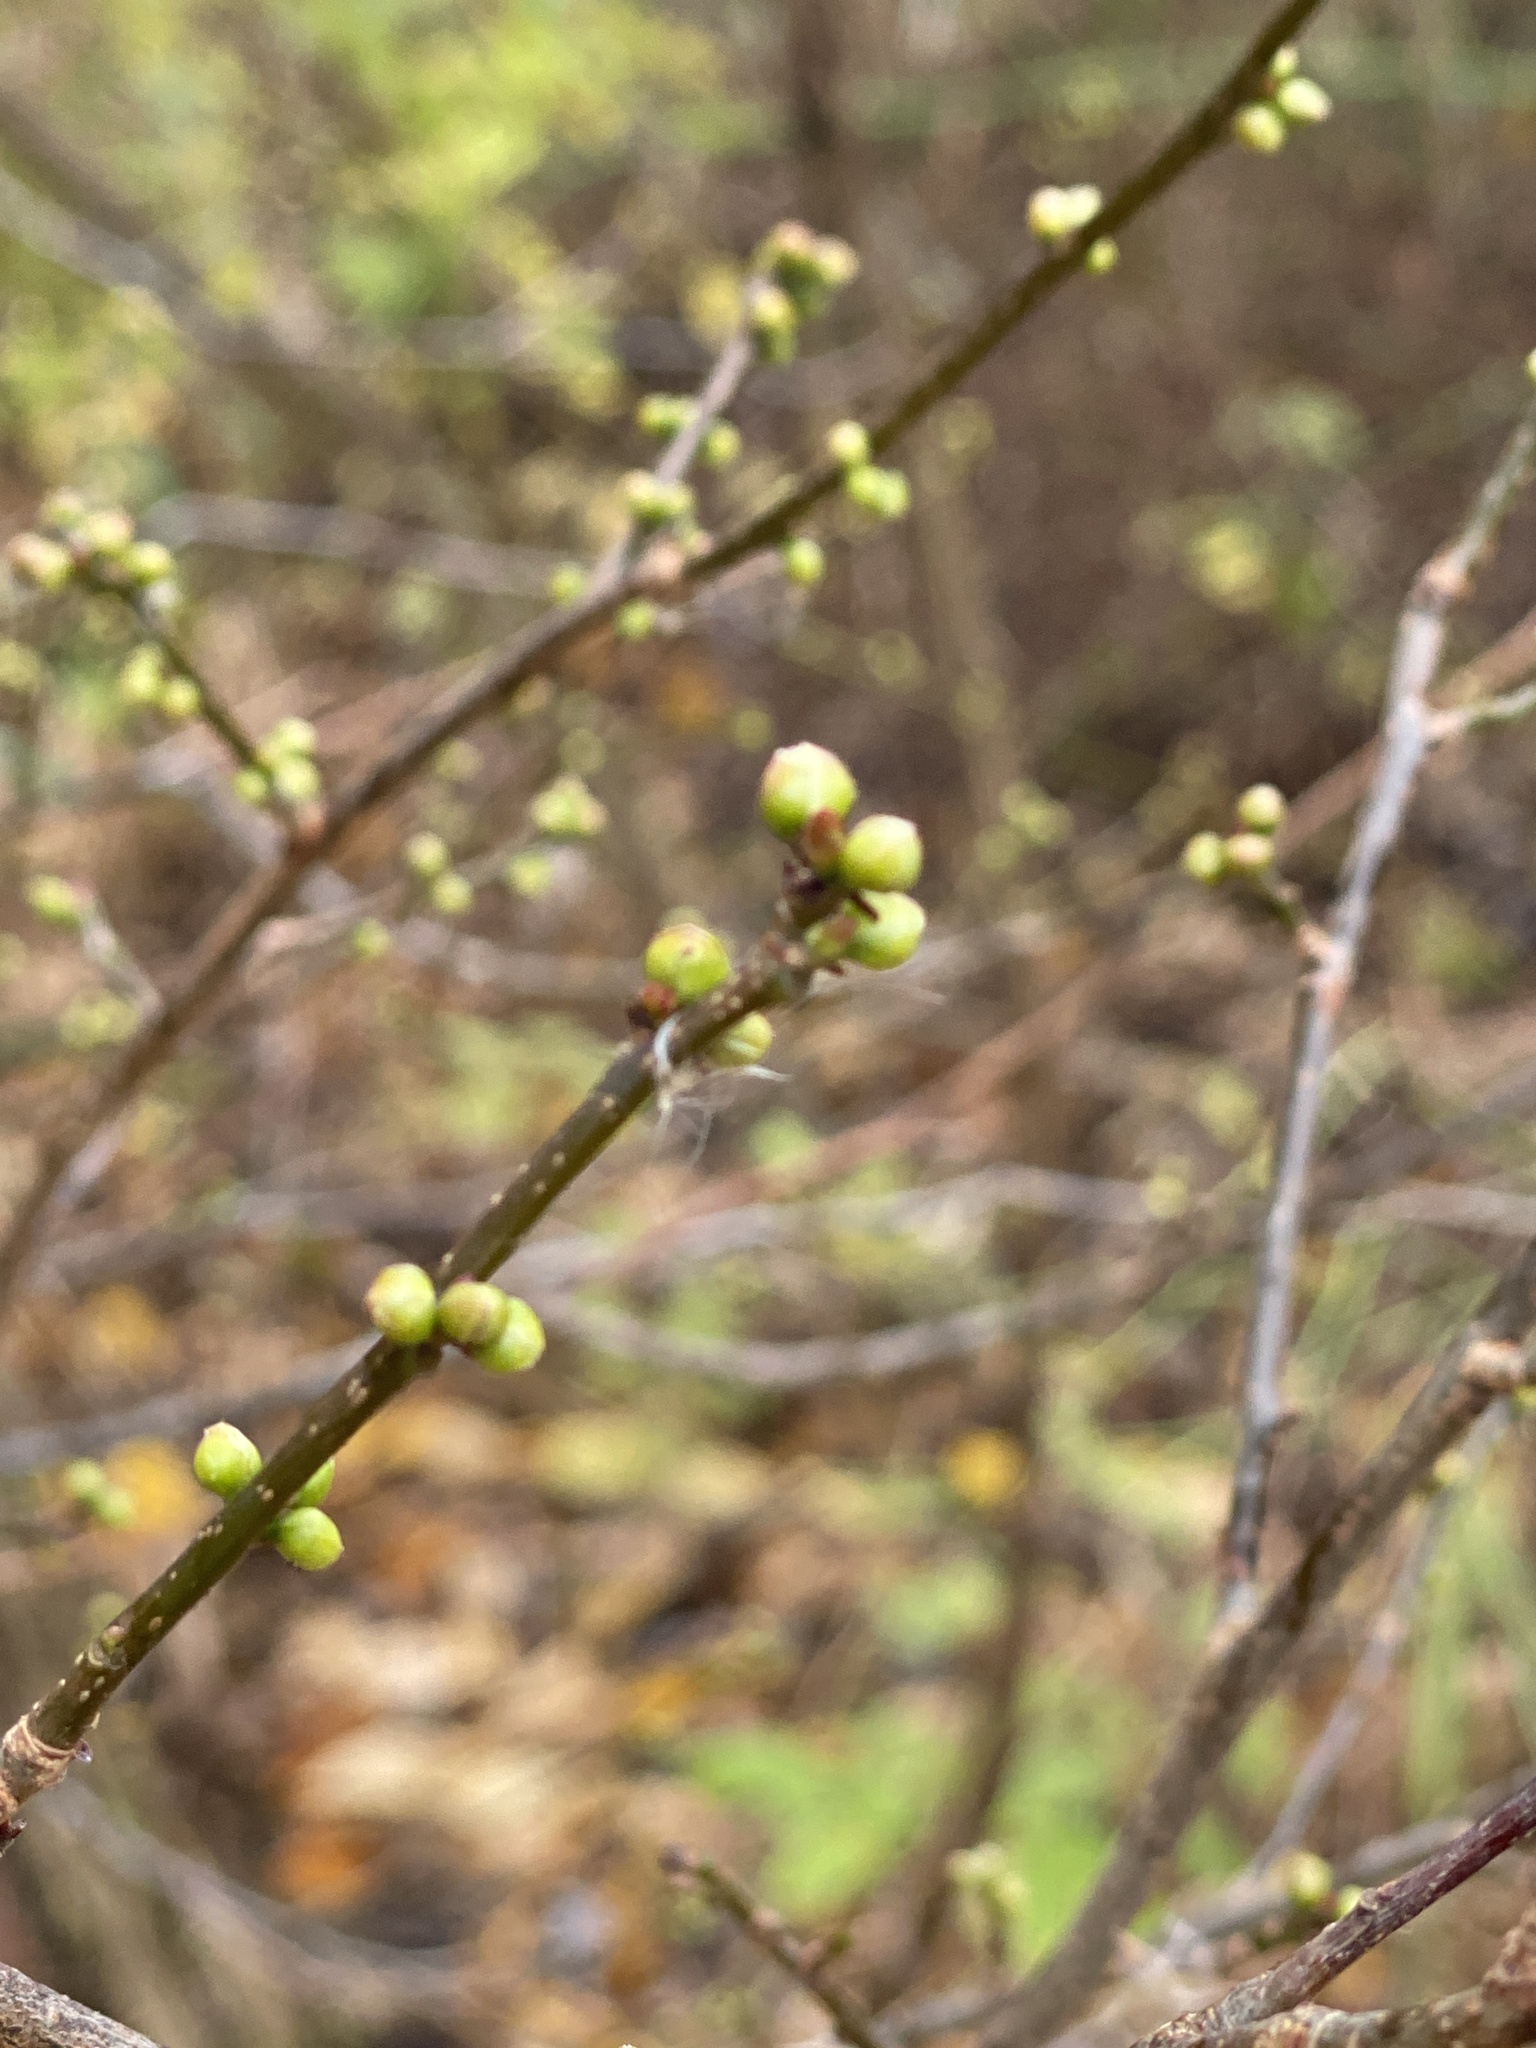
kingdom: Plantae
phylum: Tracheophyta
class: Magnoliopsida
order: Laurales
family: Lauraceae
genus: Lindera
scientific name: Lindera benzoin
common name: Spicebush
